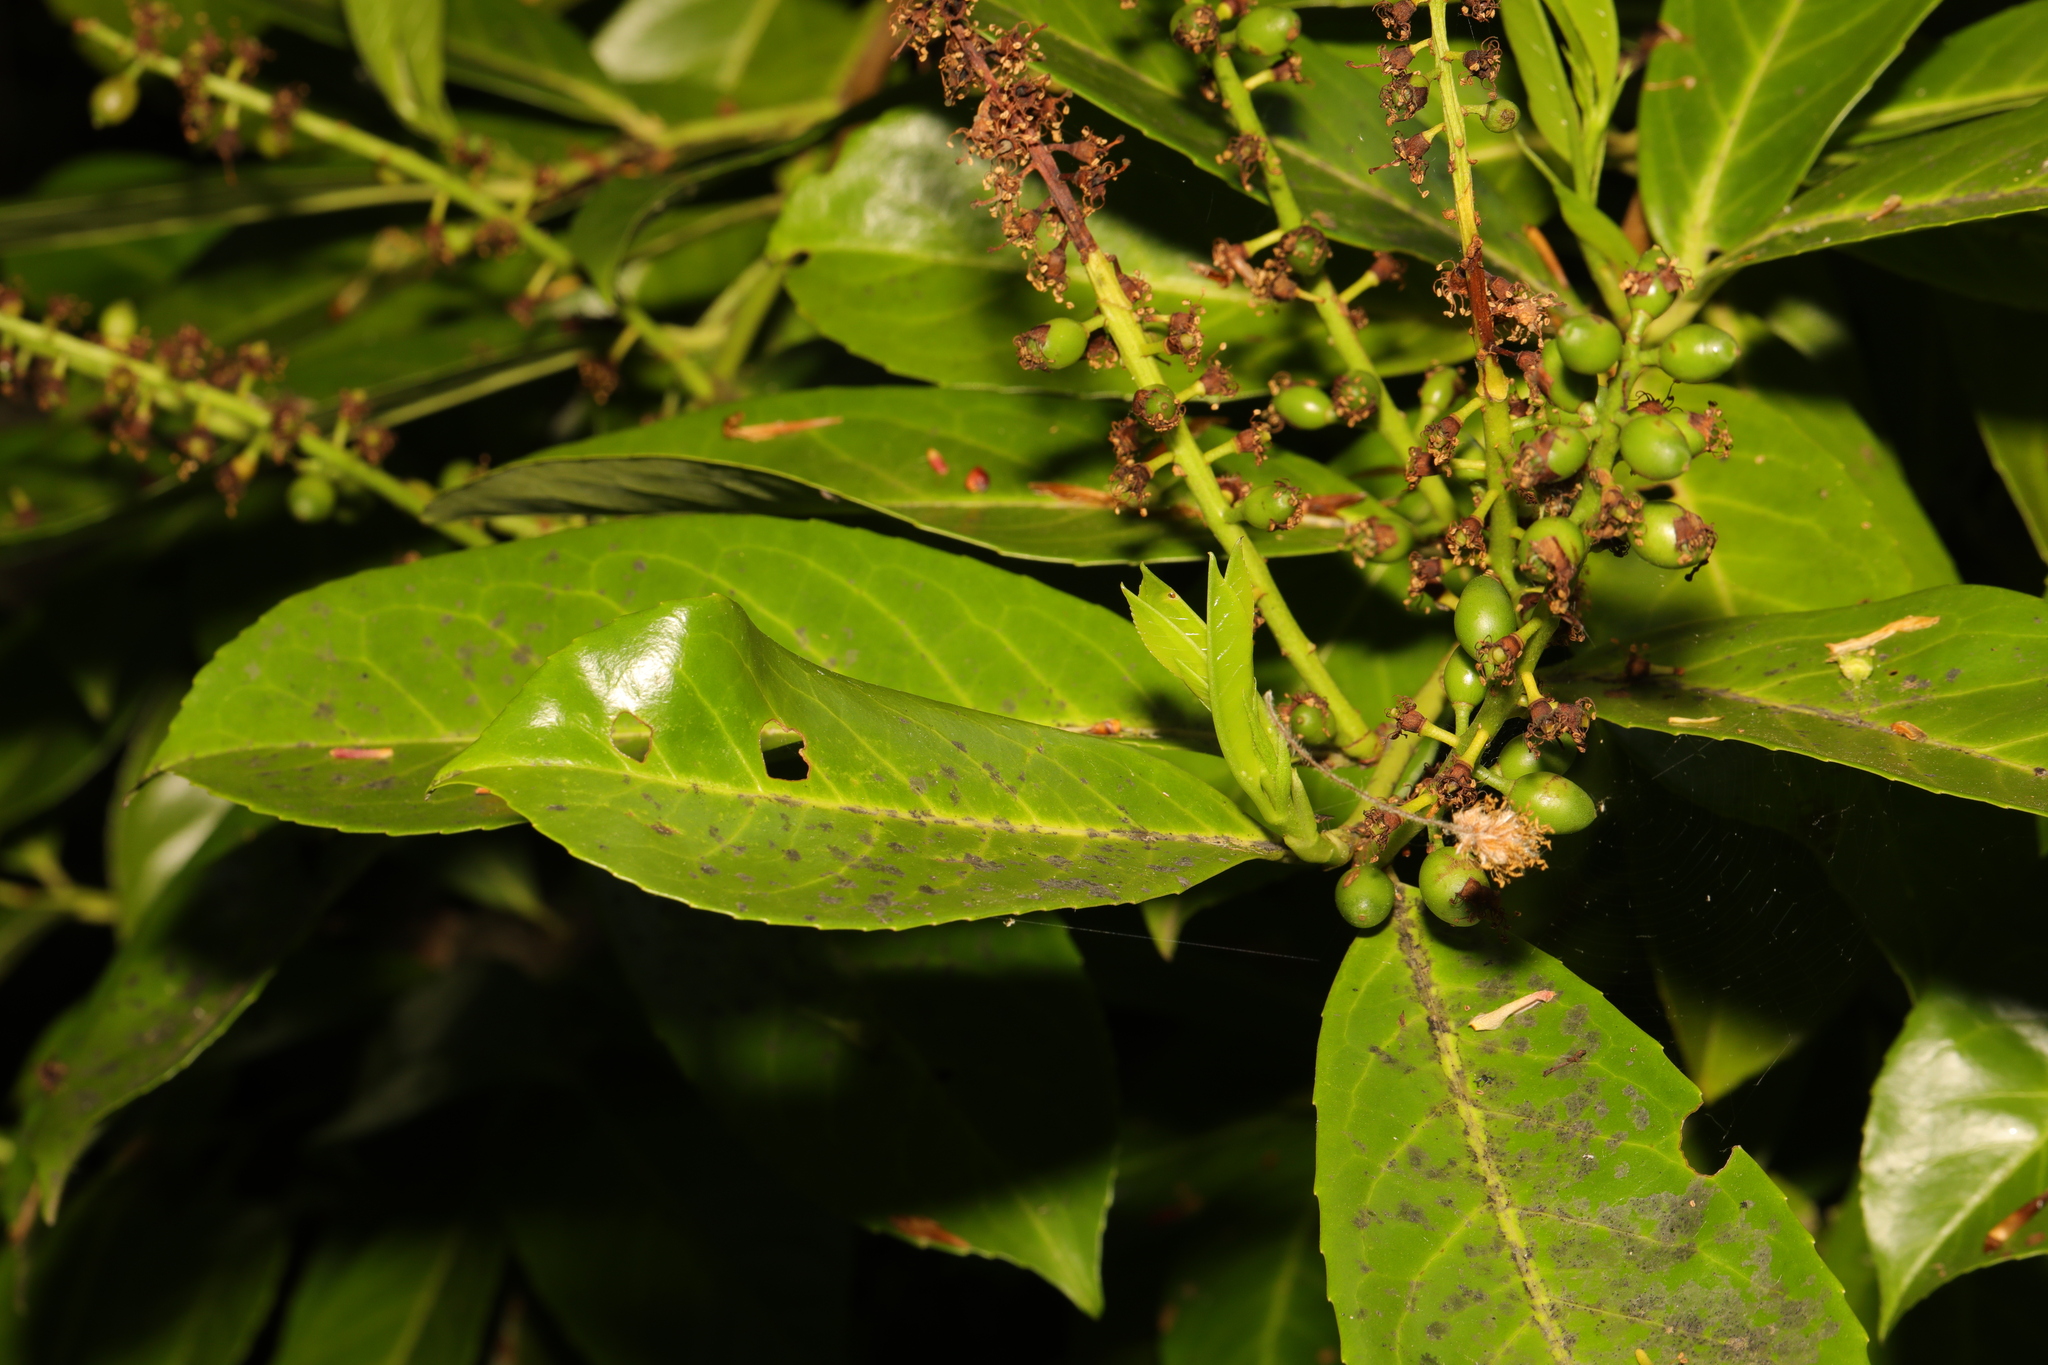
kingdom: Plantae
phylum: Tracheophyta
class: Magnoliopsida
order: Rosales
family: Rosaceae
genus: Prunus
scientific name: Prunus laurocerasus
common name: Cherry laurel
